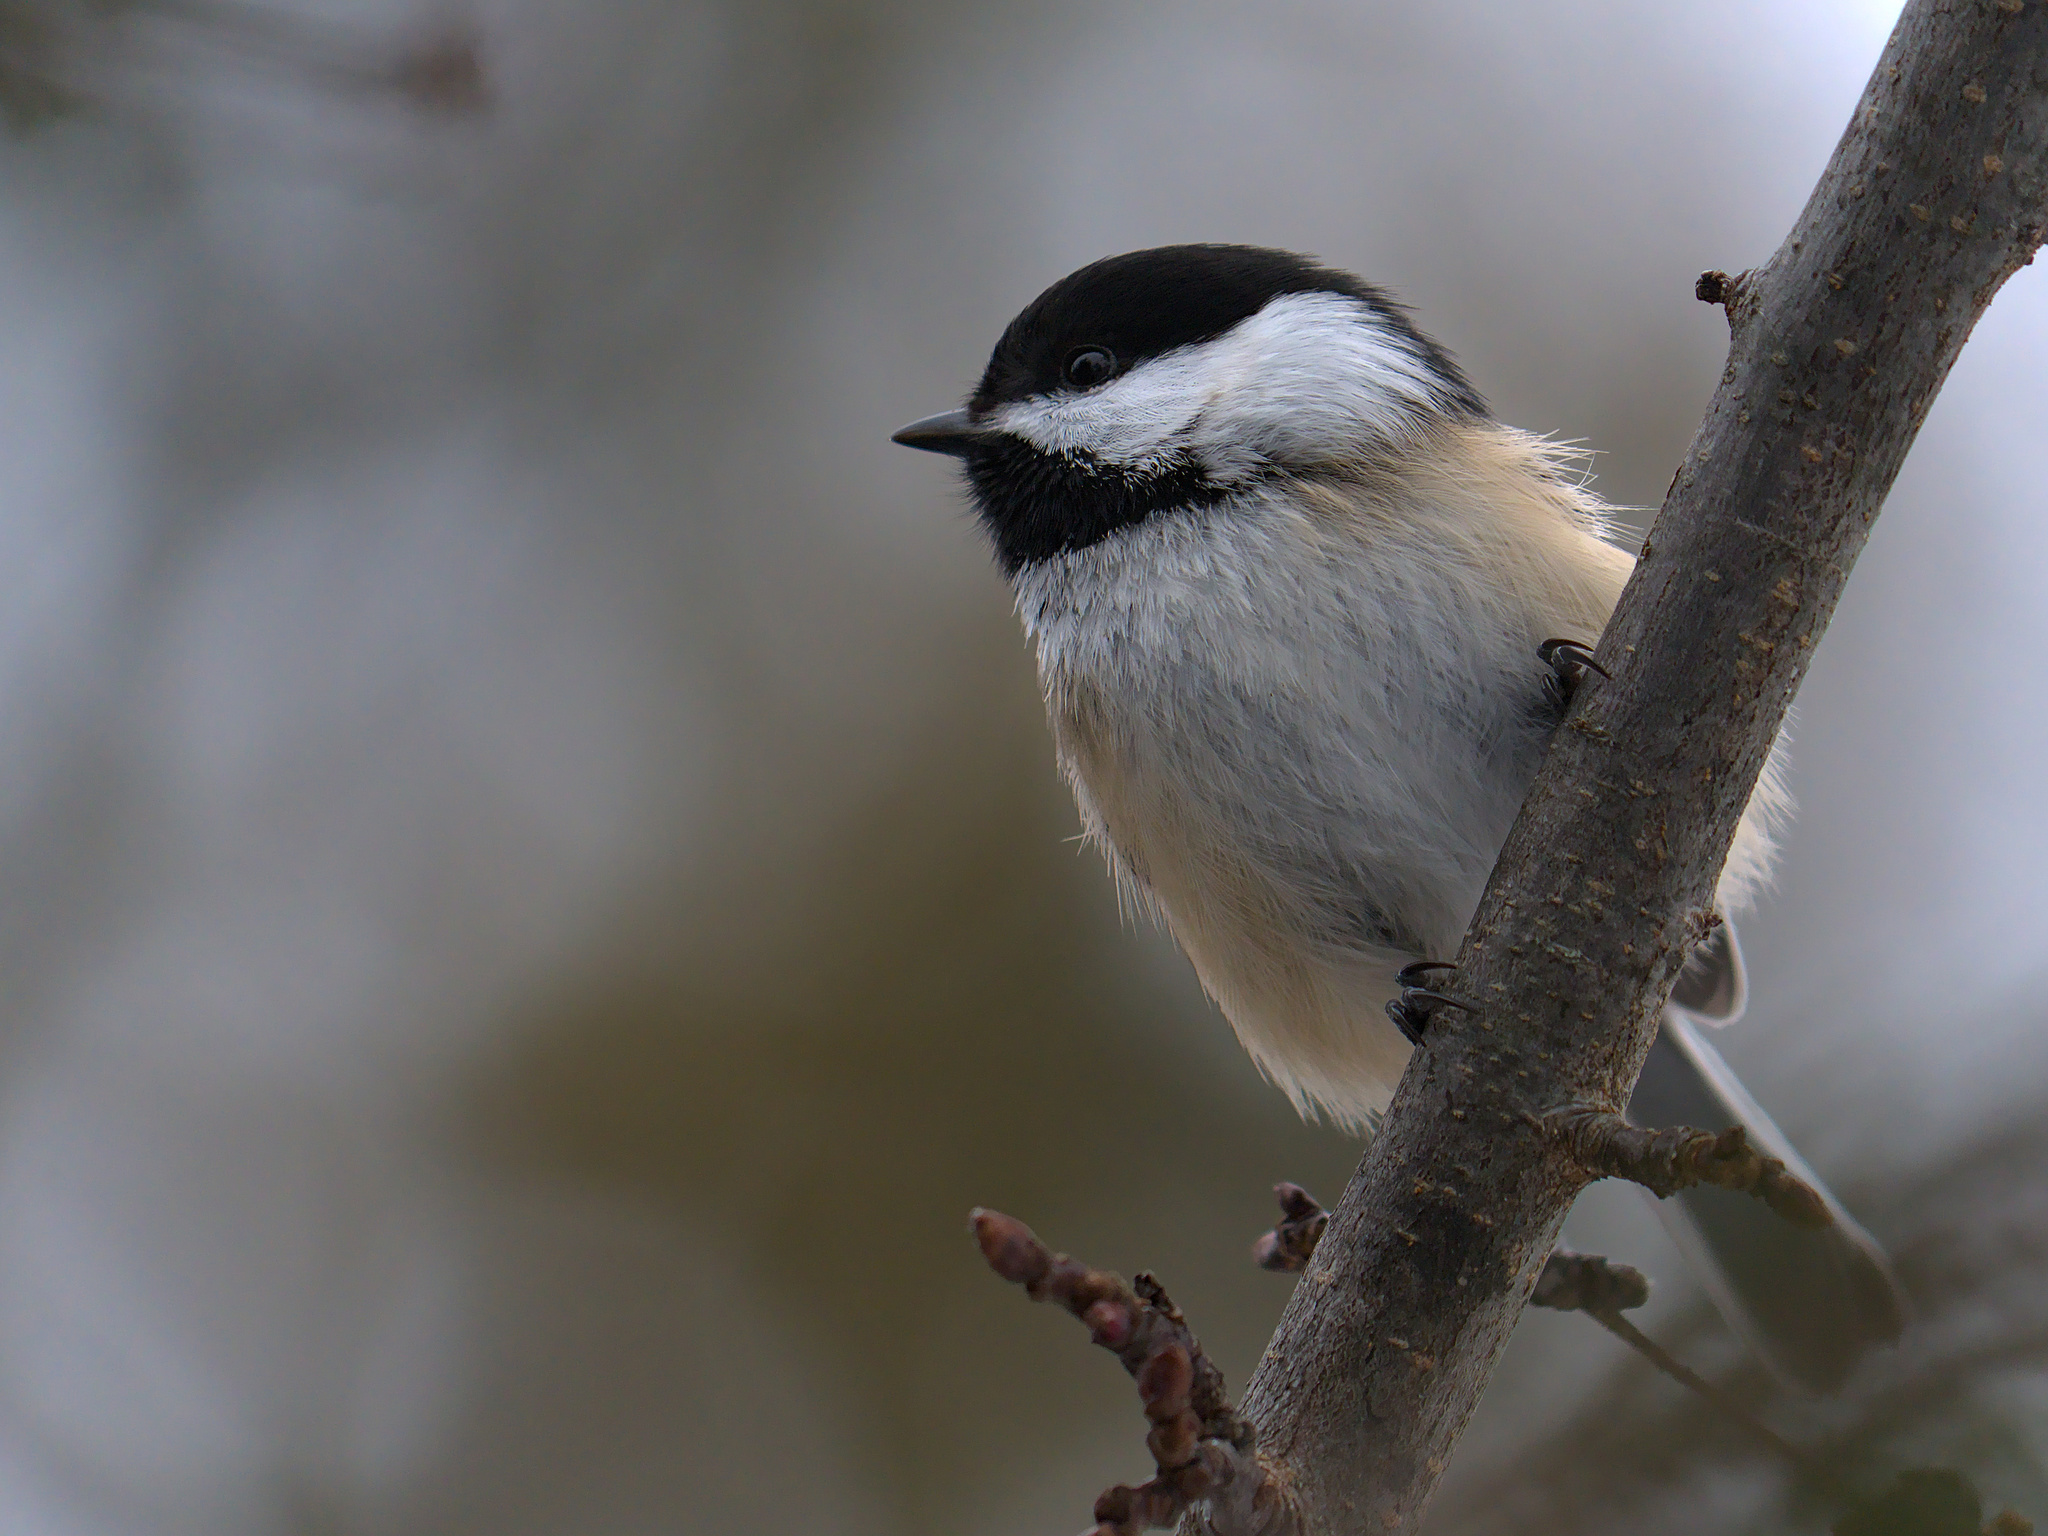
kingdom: Animalia
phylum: Chordata
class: Aves
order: Passeriformes
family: Paridae
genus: Poecile
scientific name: Poecile atricapillus
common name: Black-capped chickadee
